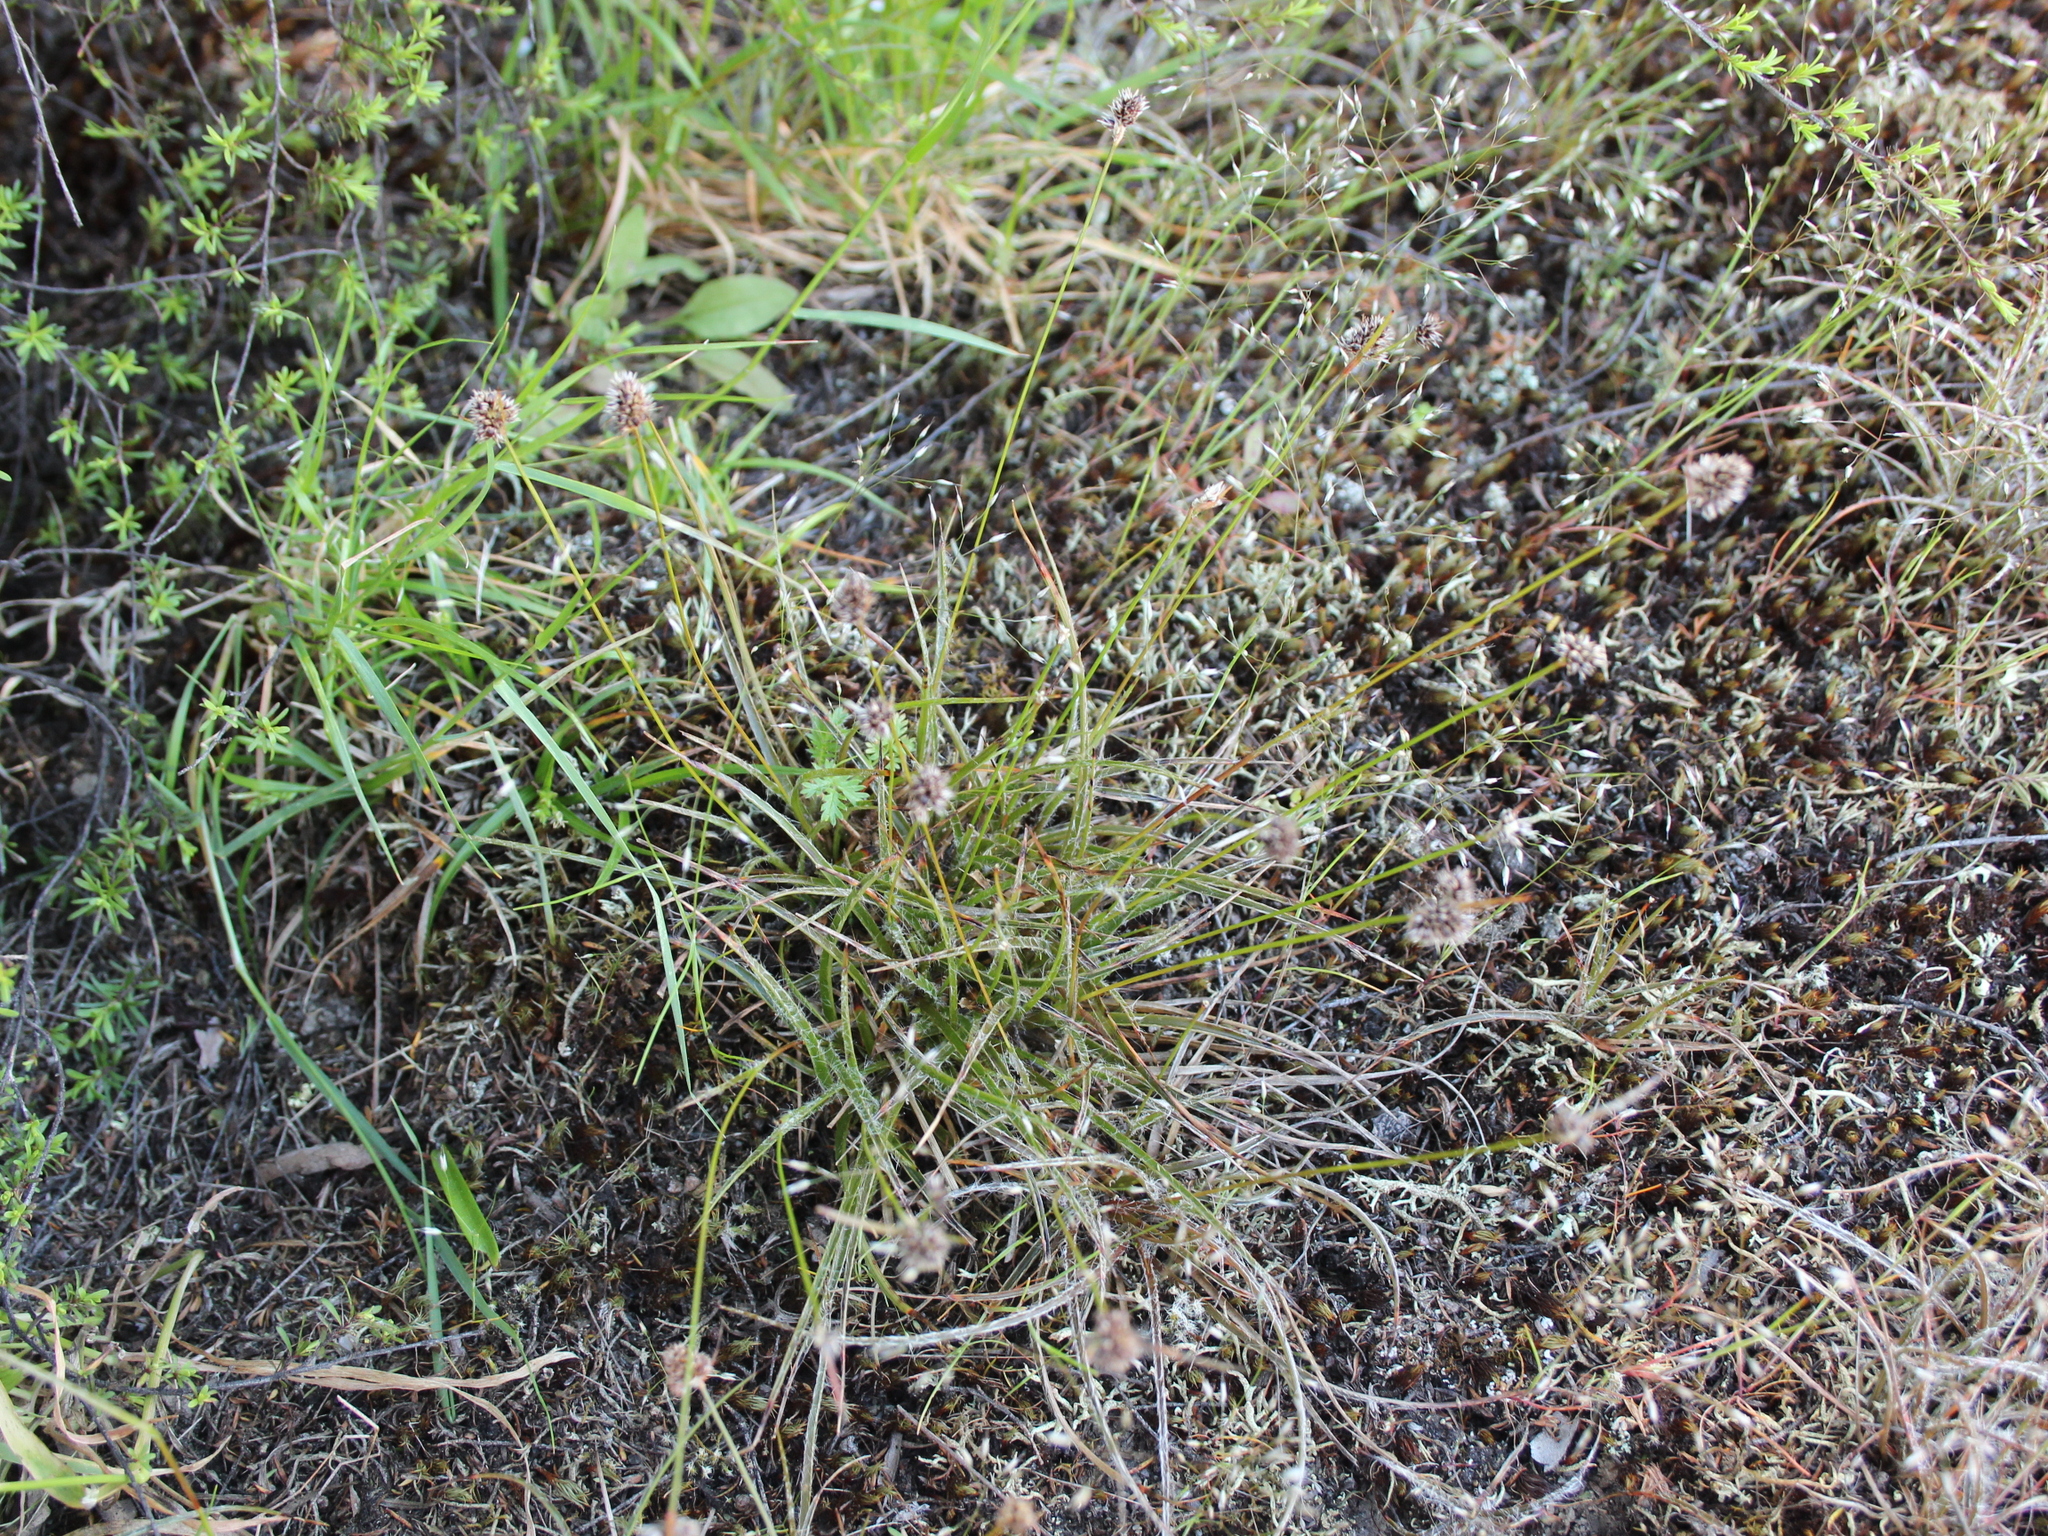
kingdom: Plantae
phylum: Tracheophyta
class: Liliopsida
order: Poales
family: Juncaceae
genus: Luzula
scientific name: Luzula congesta
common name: Heath woodrush
